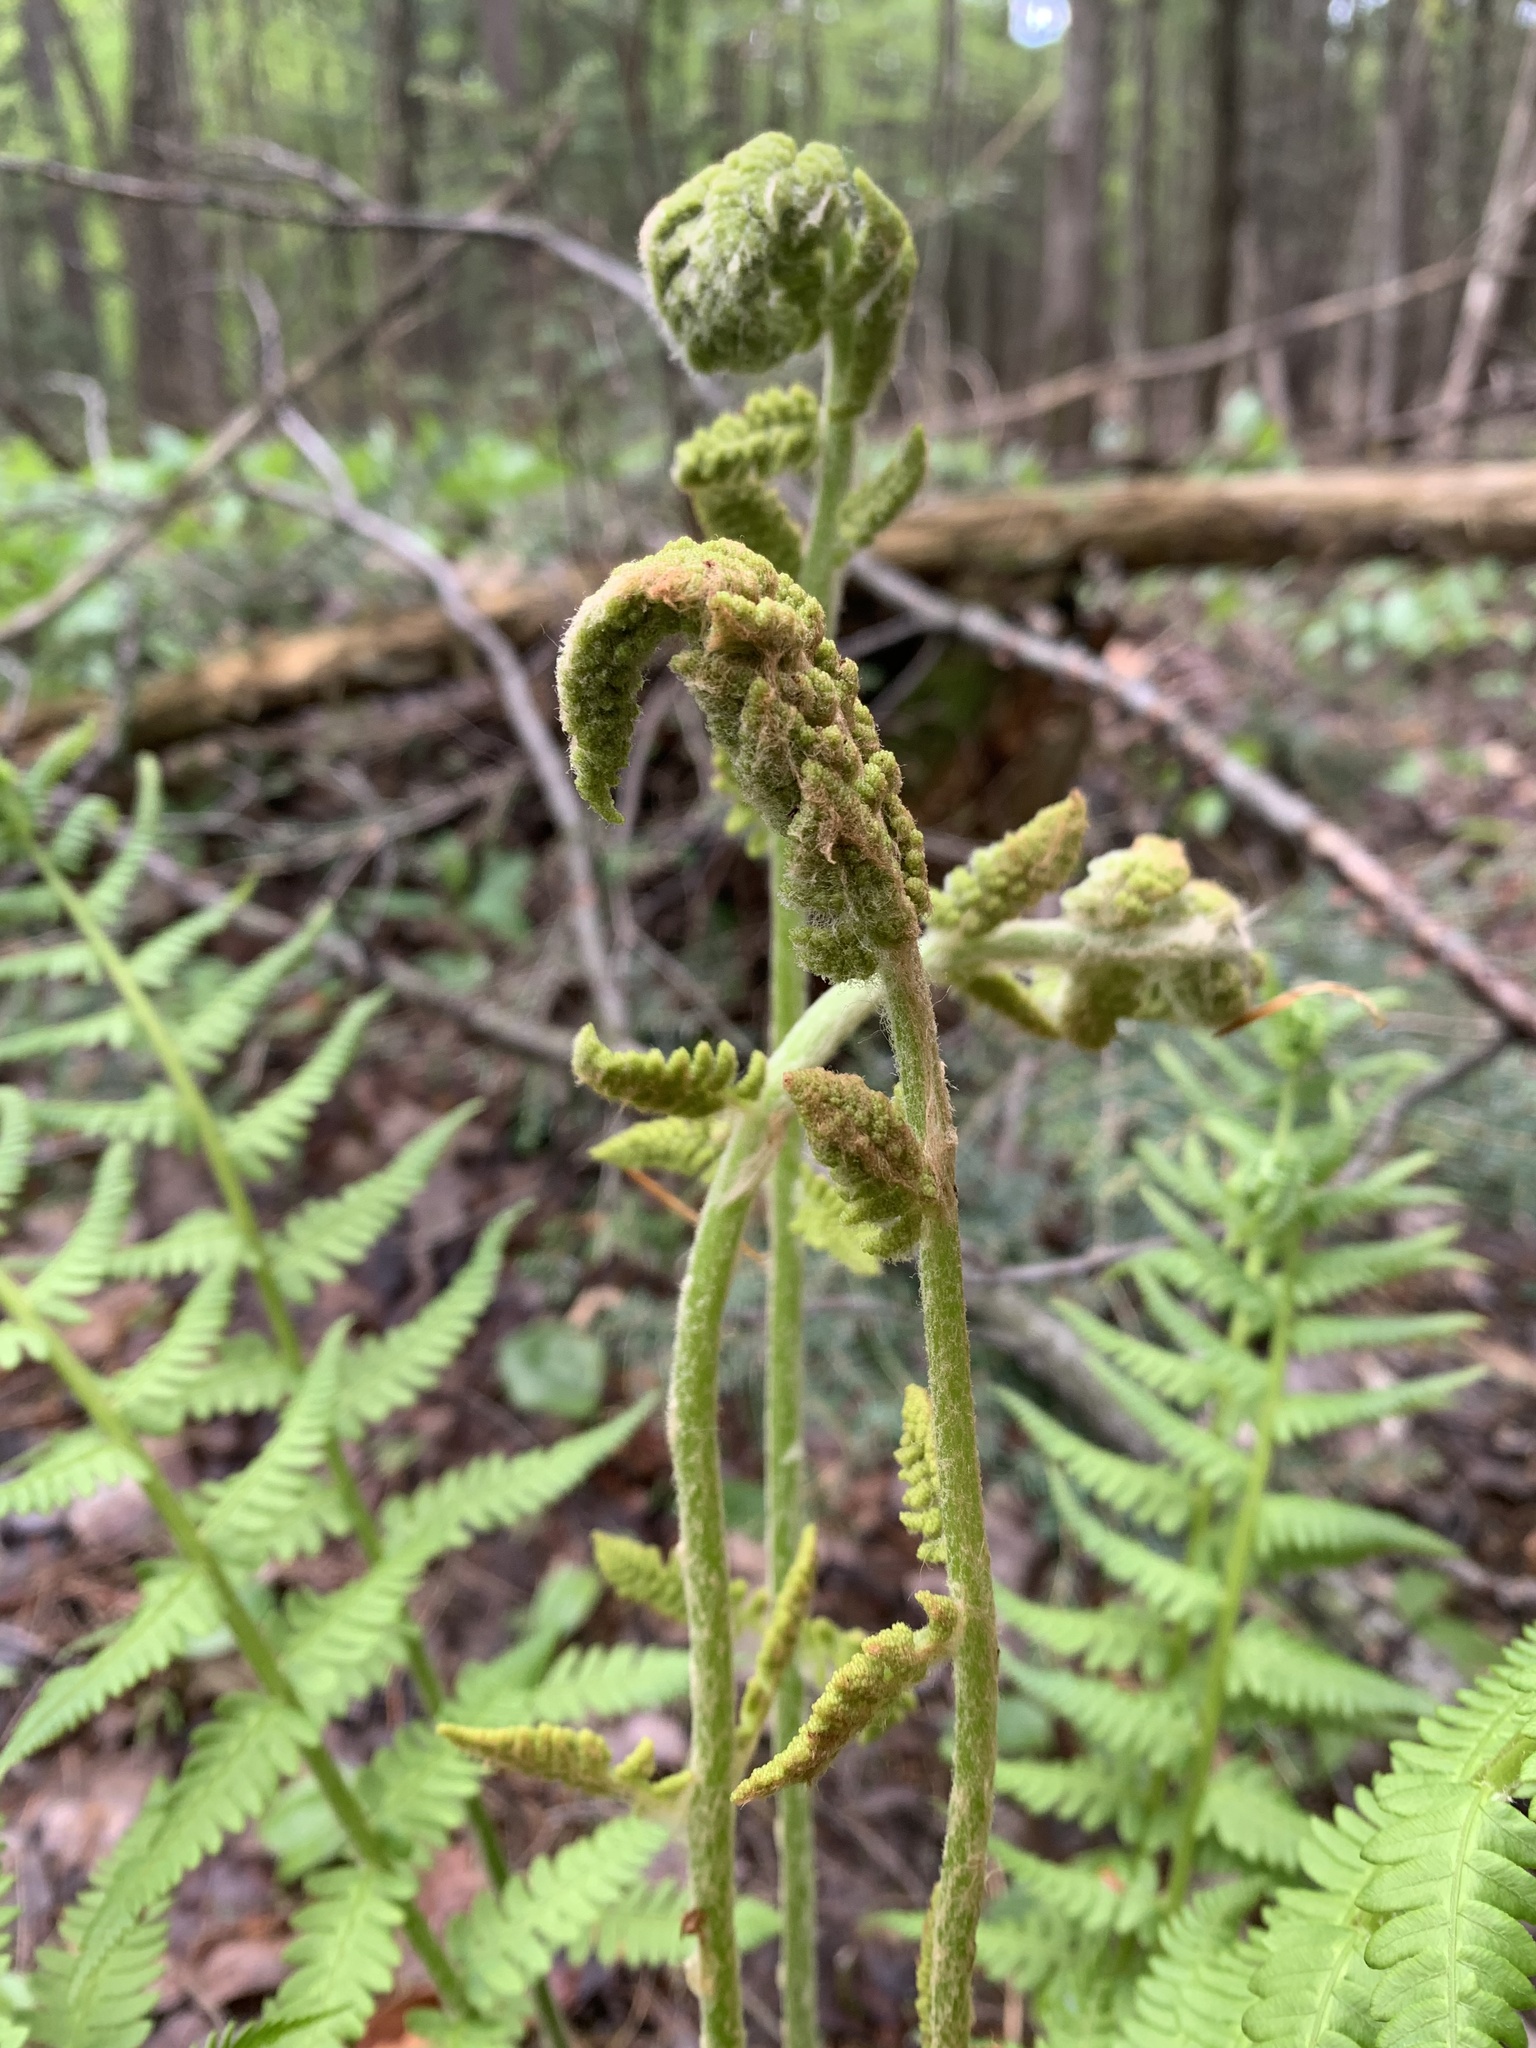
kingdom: Plantae
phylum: Tracheophyta
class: Polypodiopsida
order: Osmundales
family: Osmundaceae
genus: Osmundastrum
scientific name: Osmundastrum cinnamomeum
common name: Cinnamon fern
